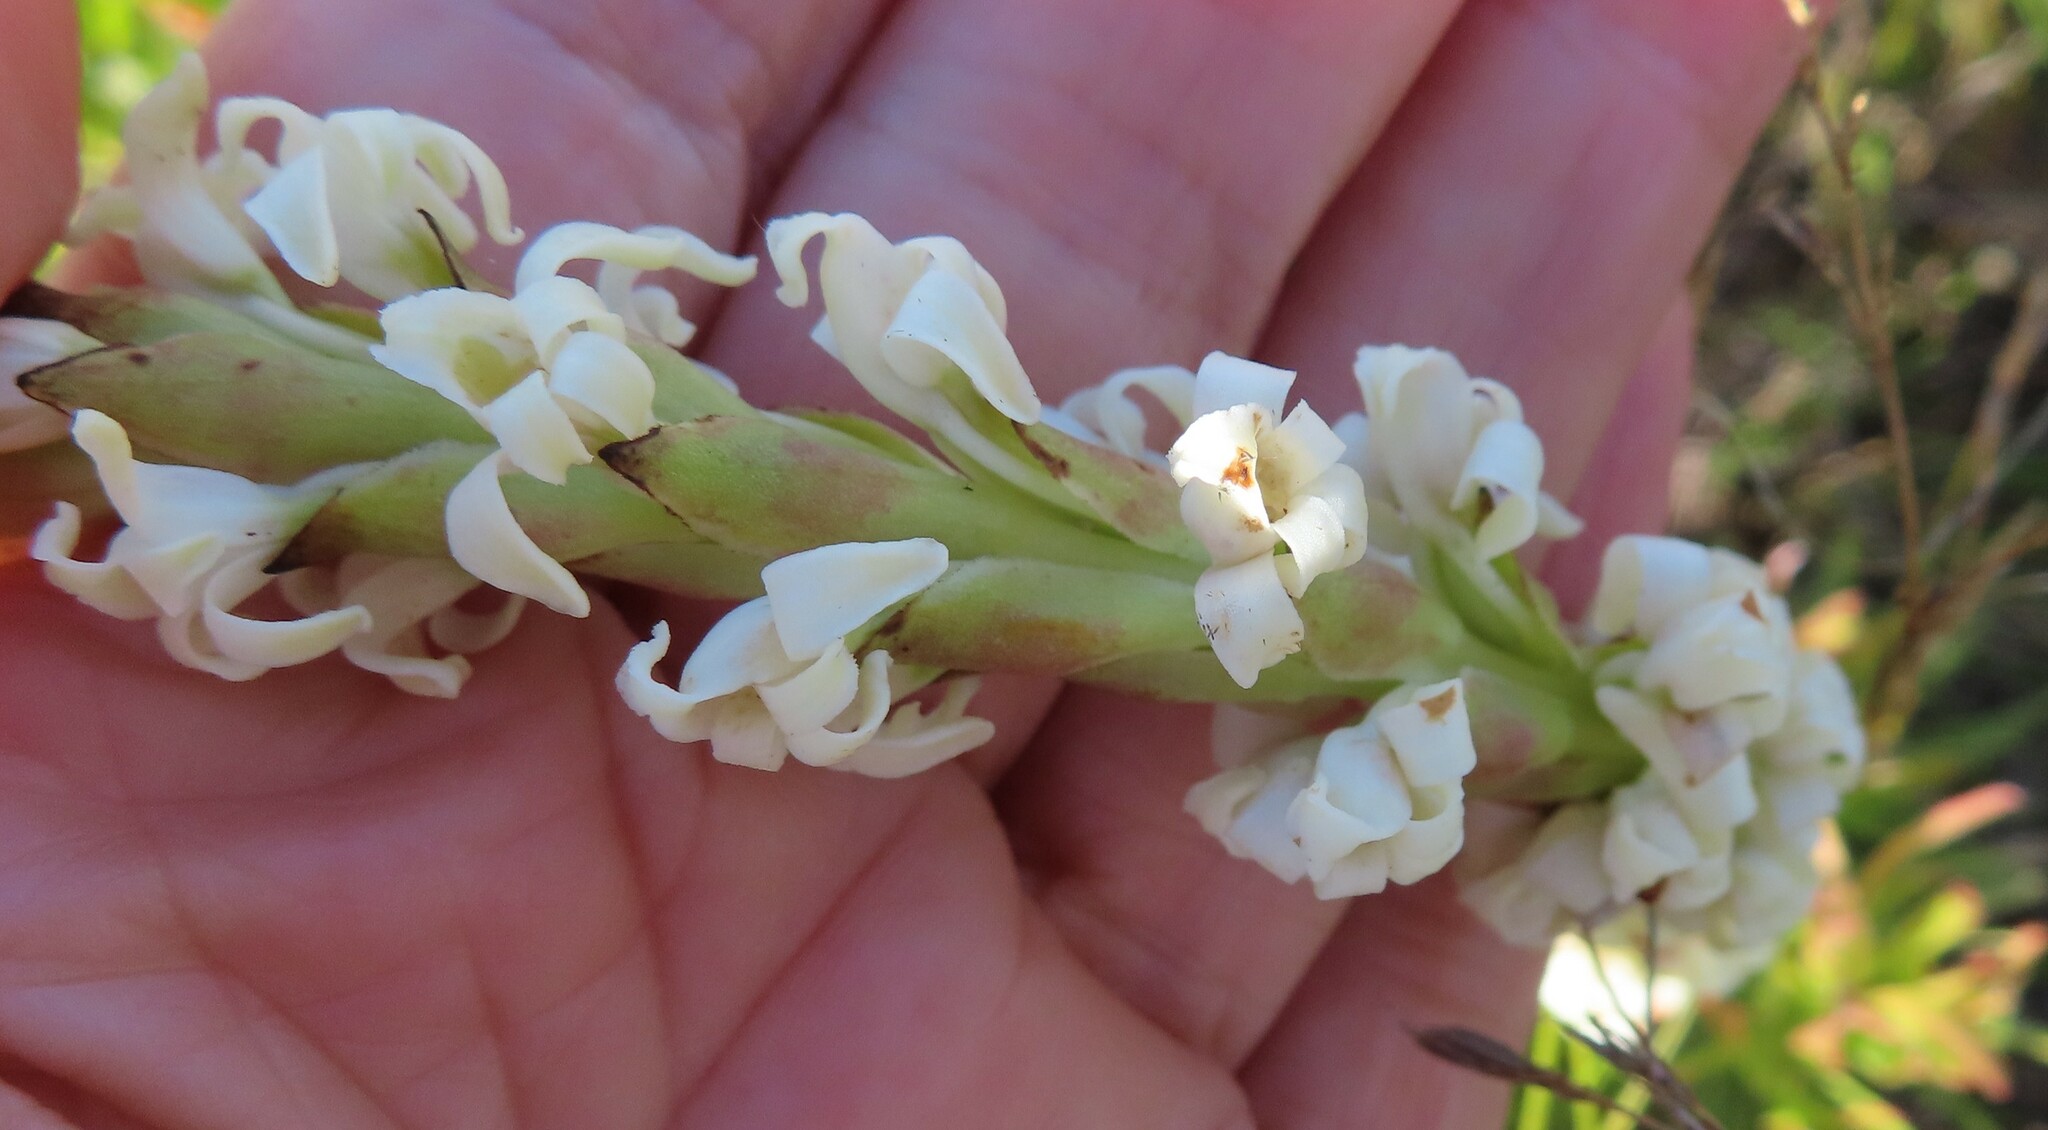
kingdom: Plantae
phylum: Tracheophyta
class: Liliopsida
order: Asparagales
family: Orchidaceae
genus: Satyrium
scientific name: Satyrium stenopetalum
